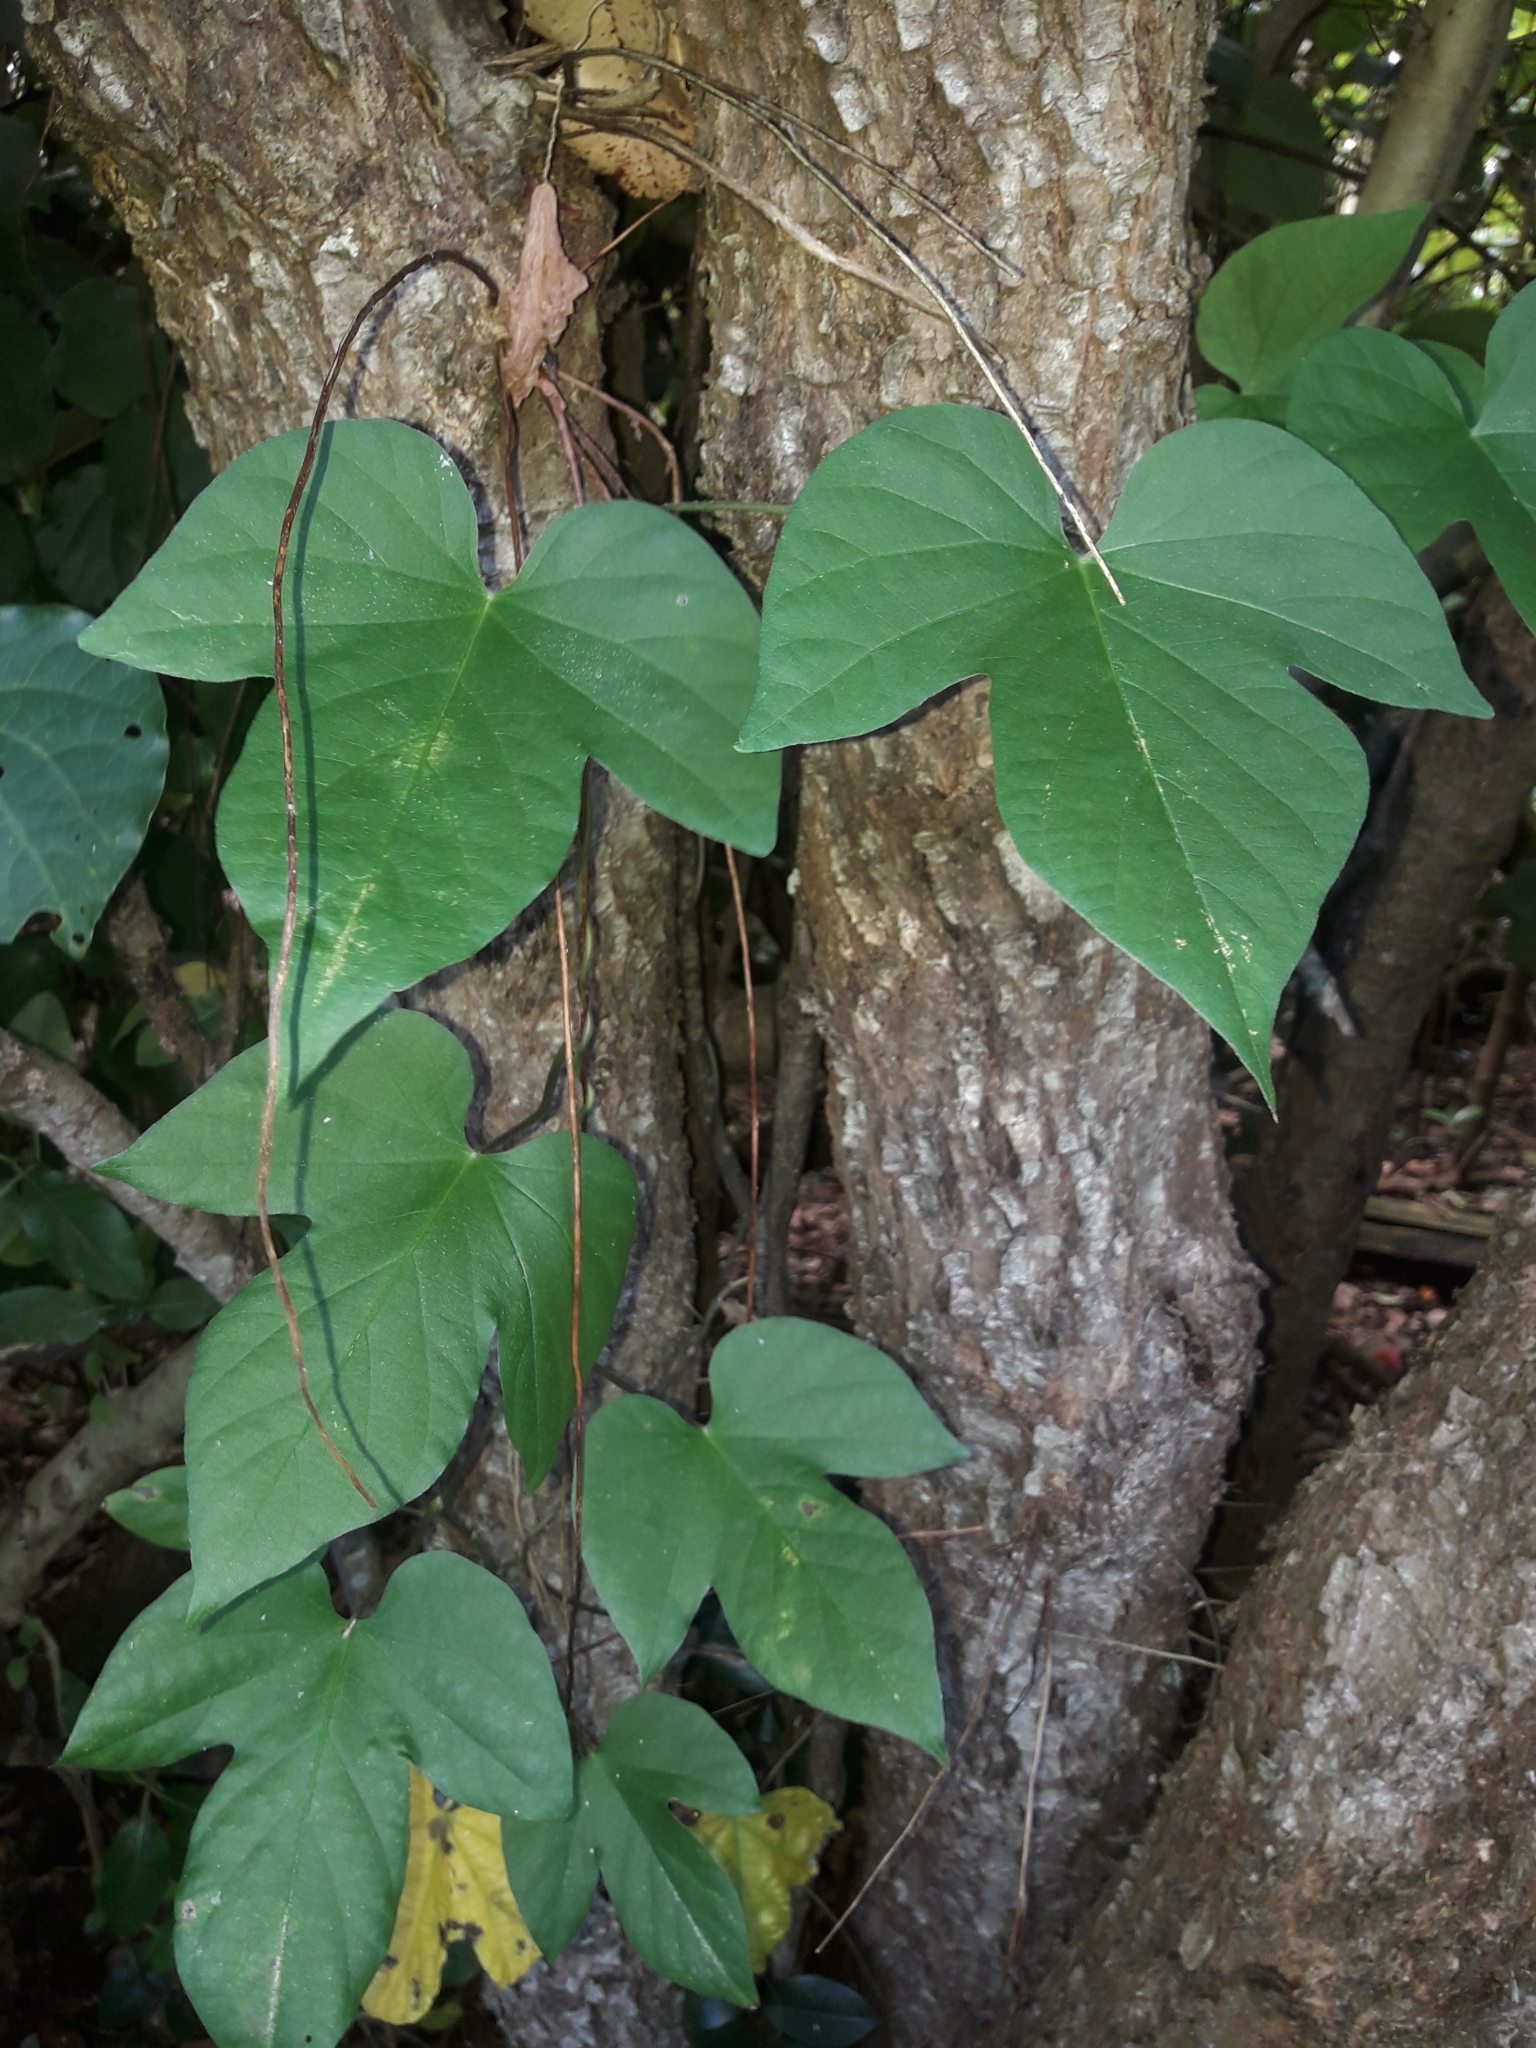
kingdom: Plantae
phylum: Tracheophyta
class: Magnoliopsida
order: Solanales
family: Convolvulaceae
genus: Ipomoea
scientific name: Ipomoea indica
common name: Blue dawnflower
